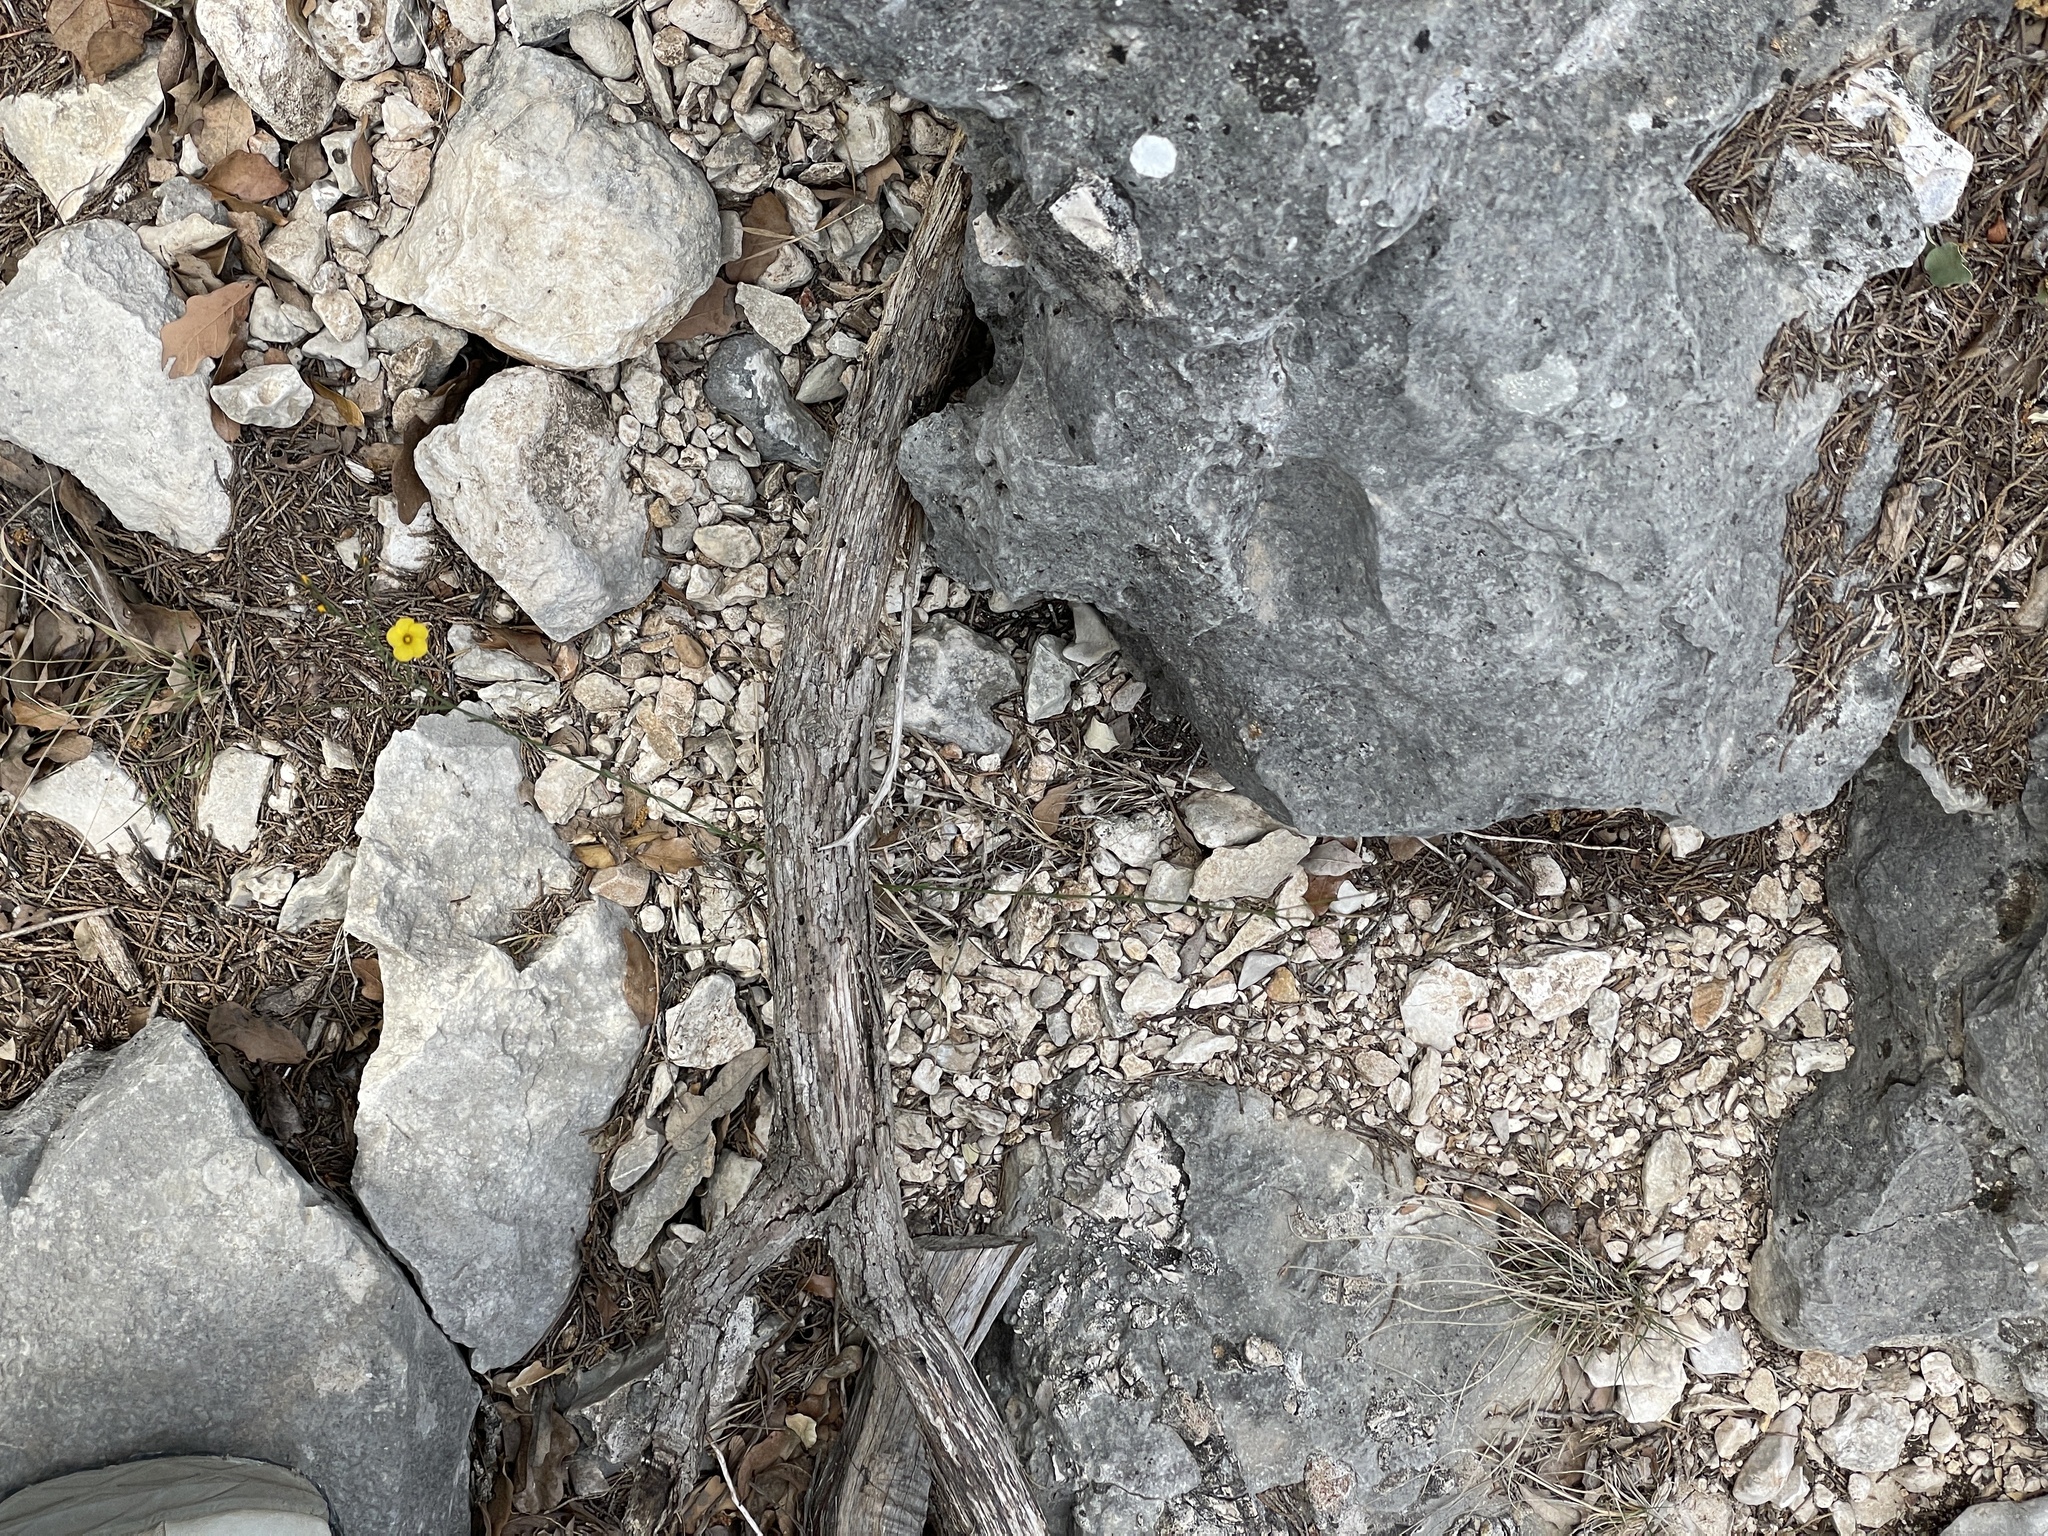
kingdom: Plantae
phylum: Tracheophyta
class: Magnoliopsida
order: Malpighiales
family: Linaceae
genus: Linum
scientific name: Linum rupestre
